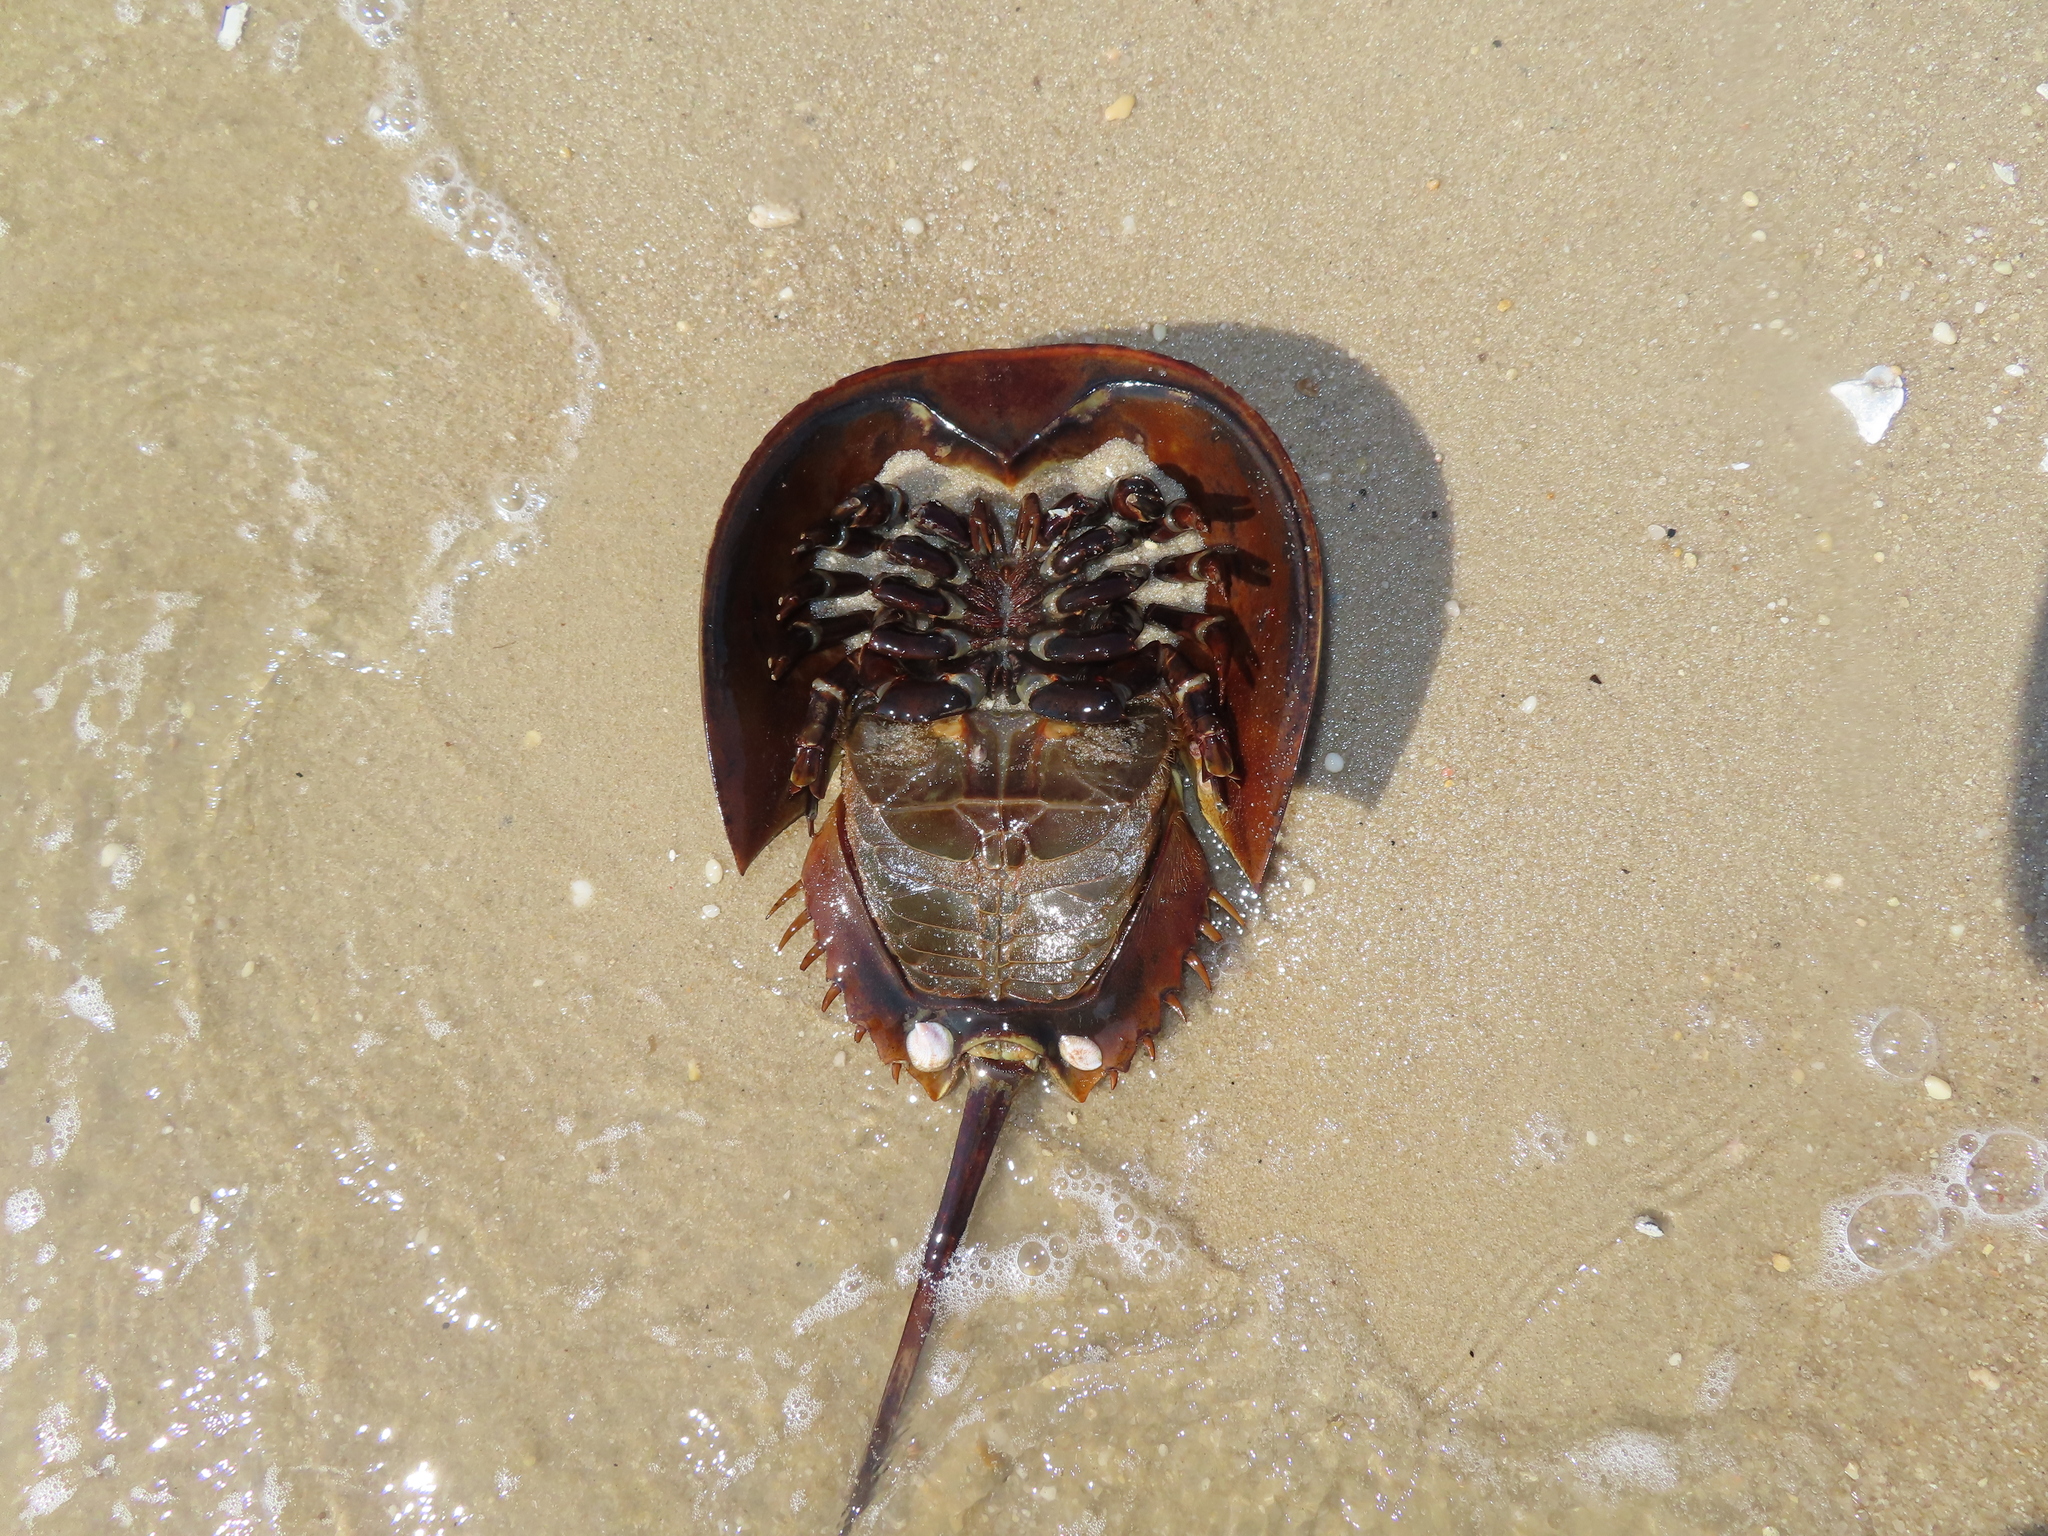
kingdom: Animalia
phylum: Arthropoda
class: Merostomata
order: Xiphosurida
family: Limulidae
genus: Limulus
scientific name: Limulus polyphemus
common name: Horseshoe crab
